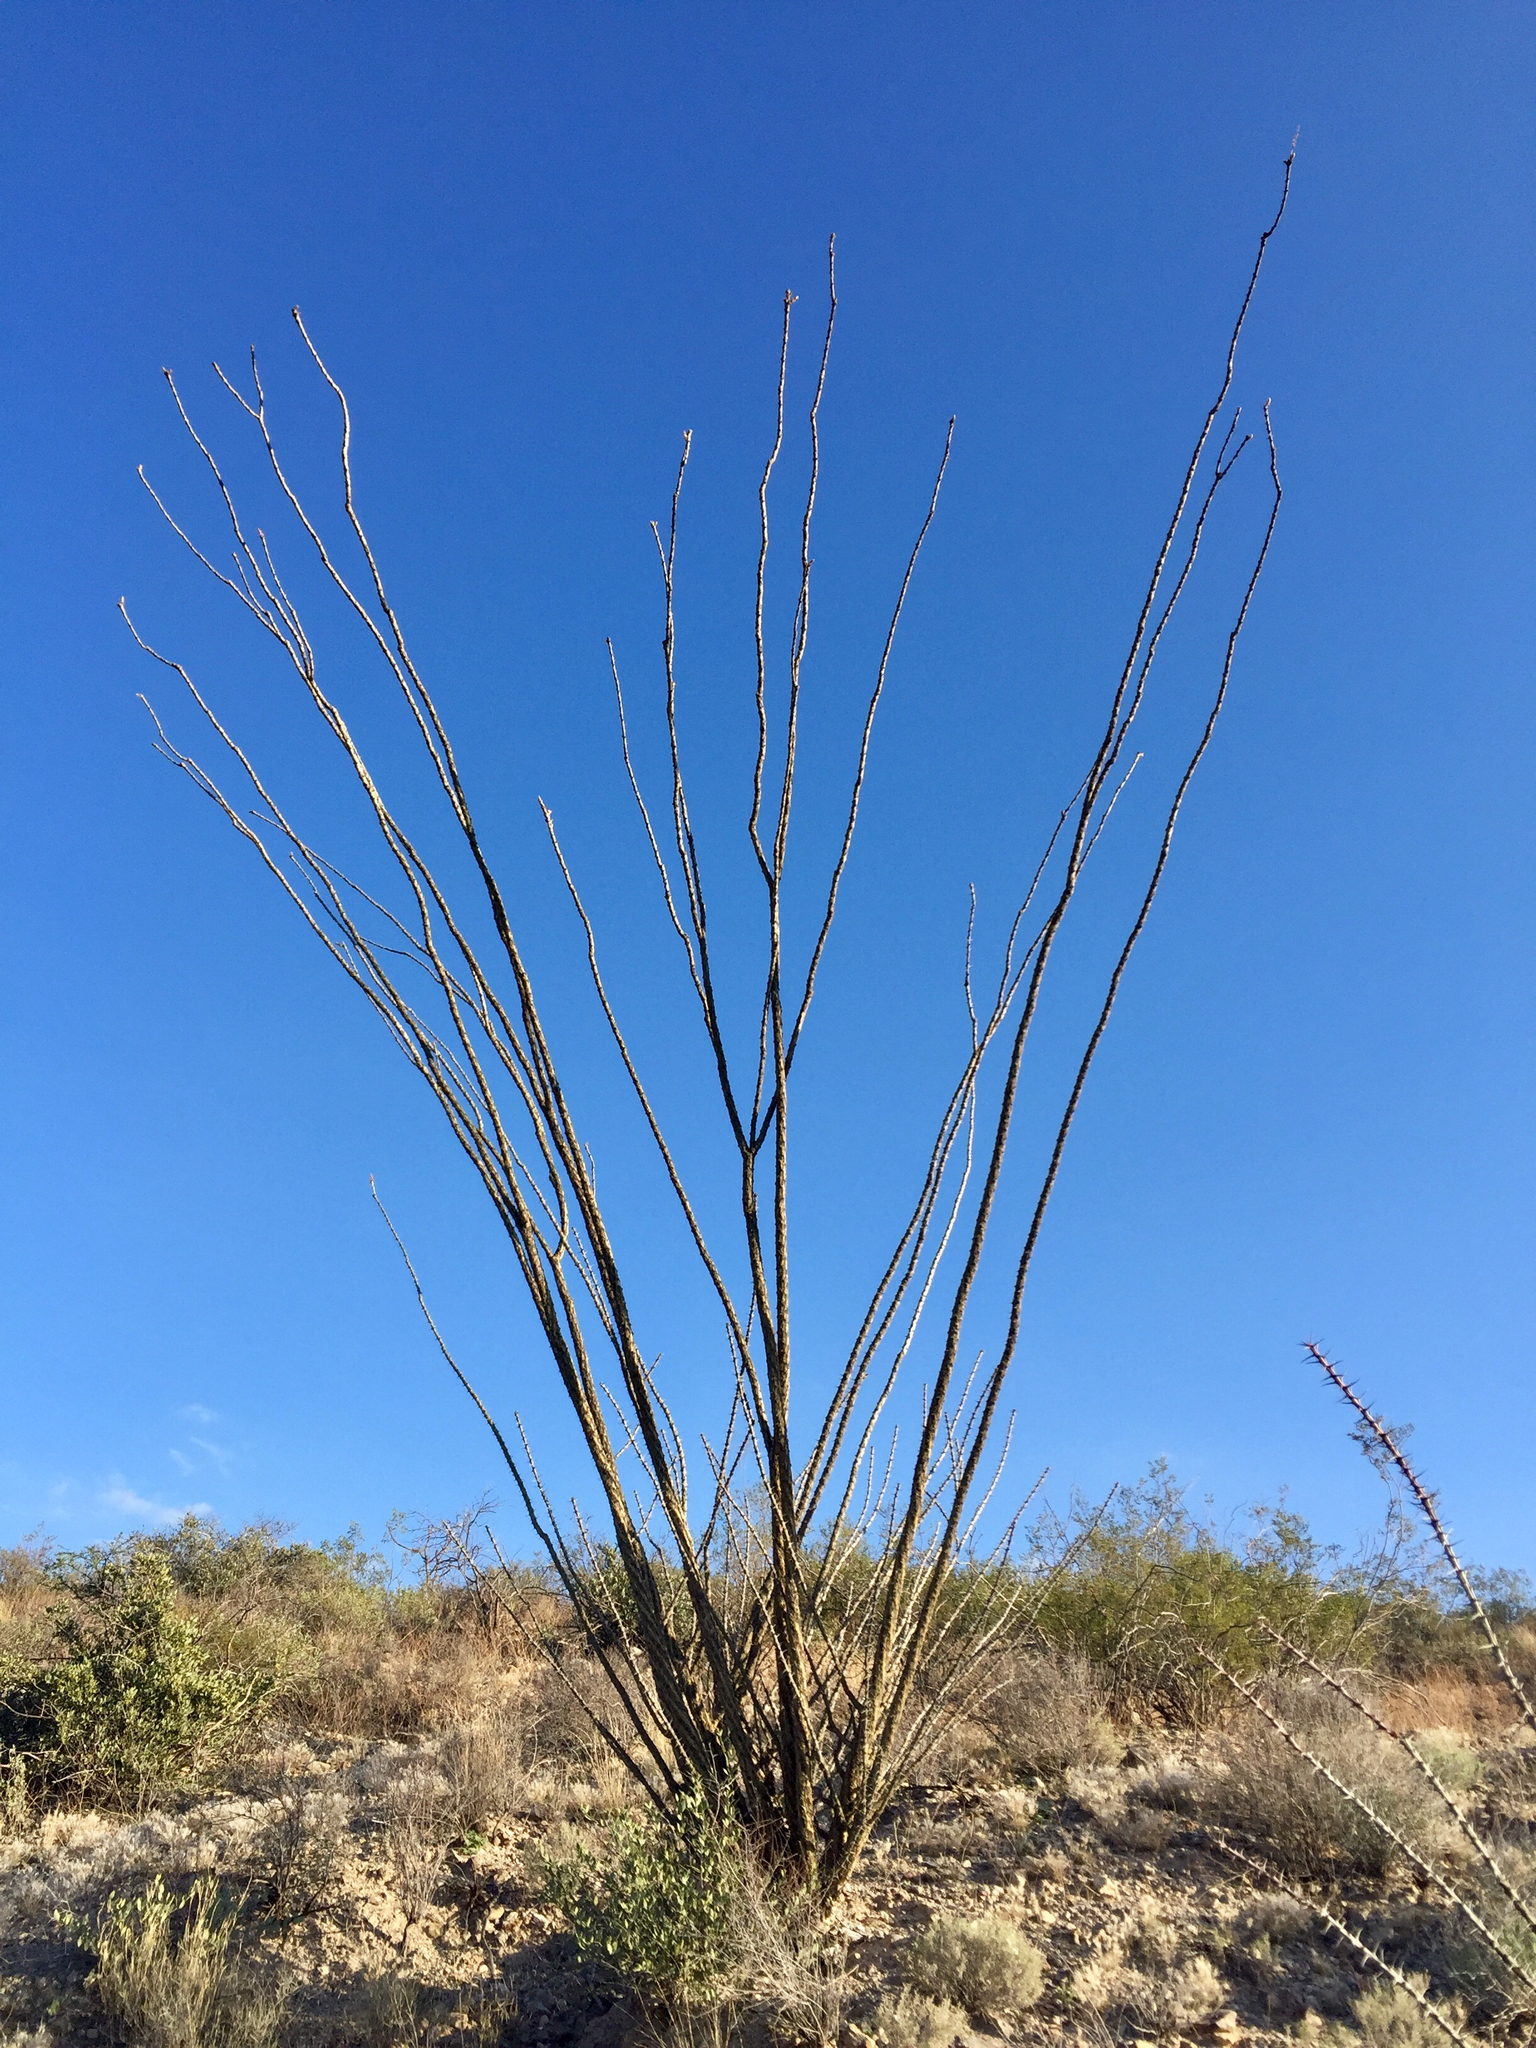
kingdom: Plantae
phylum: Tracheophyta
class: Magnoliopsida
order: Ericales
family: Fouquieriaceae
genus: Fouquieria
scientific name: Fouquieria splendens
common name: Vine-cactus
